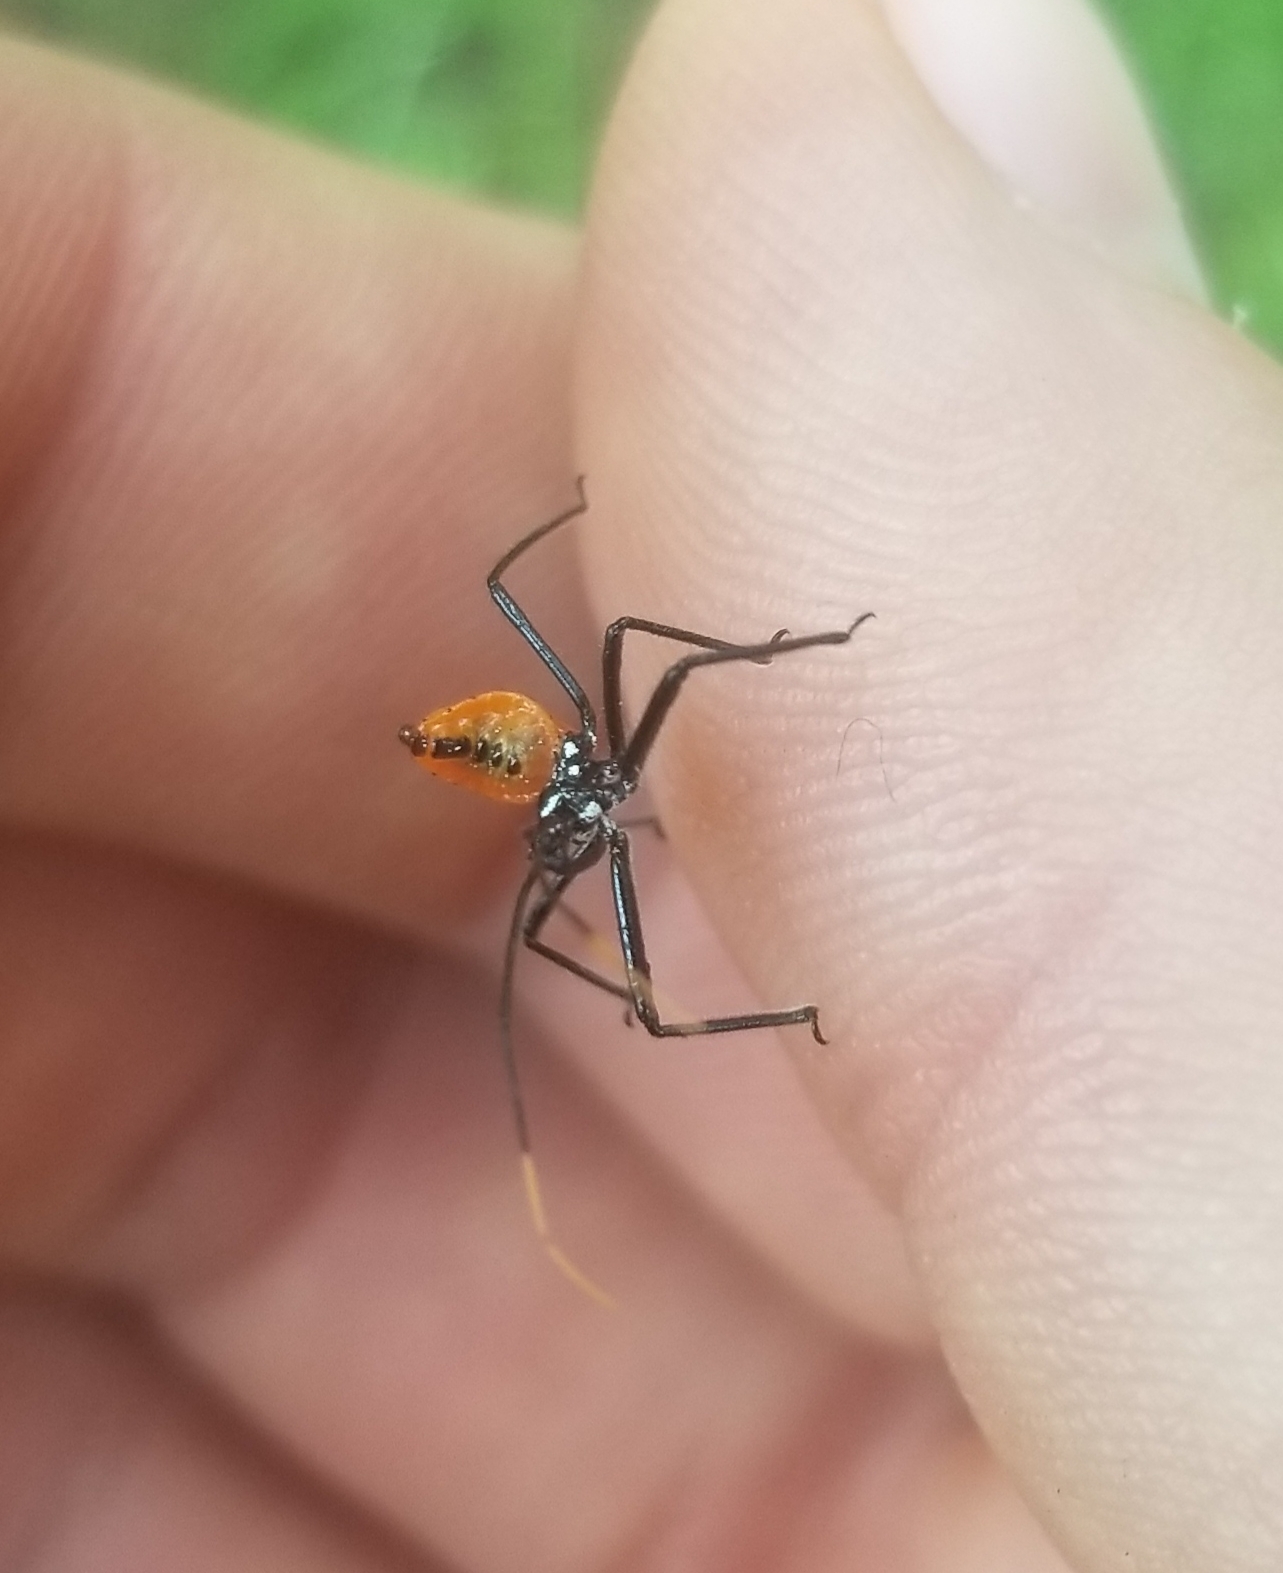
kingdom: Animalia
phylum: Arthropoda
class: Insecta
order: Hemiptera
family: Reduviidae
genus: Arilus
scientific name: Arilus cristatus
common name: North american wheel bug
